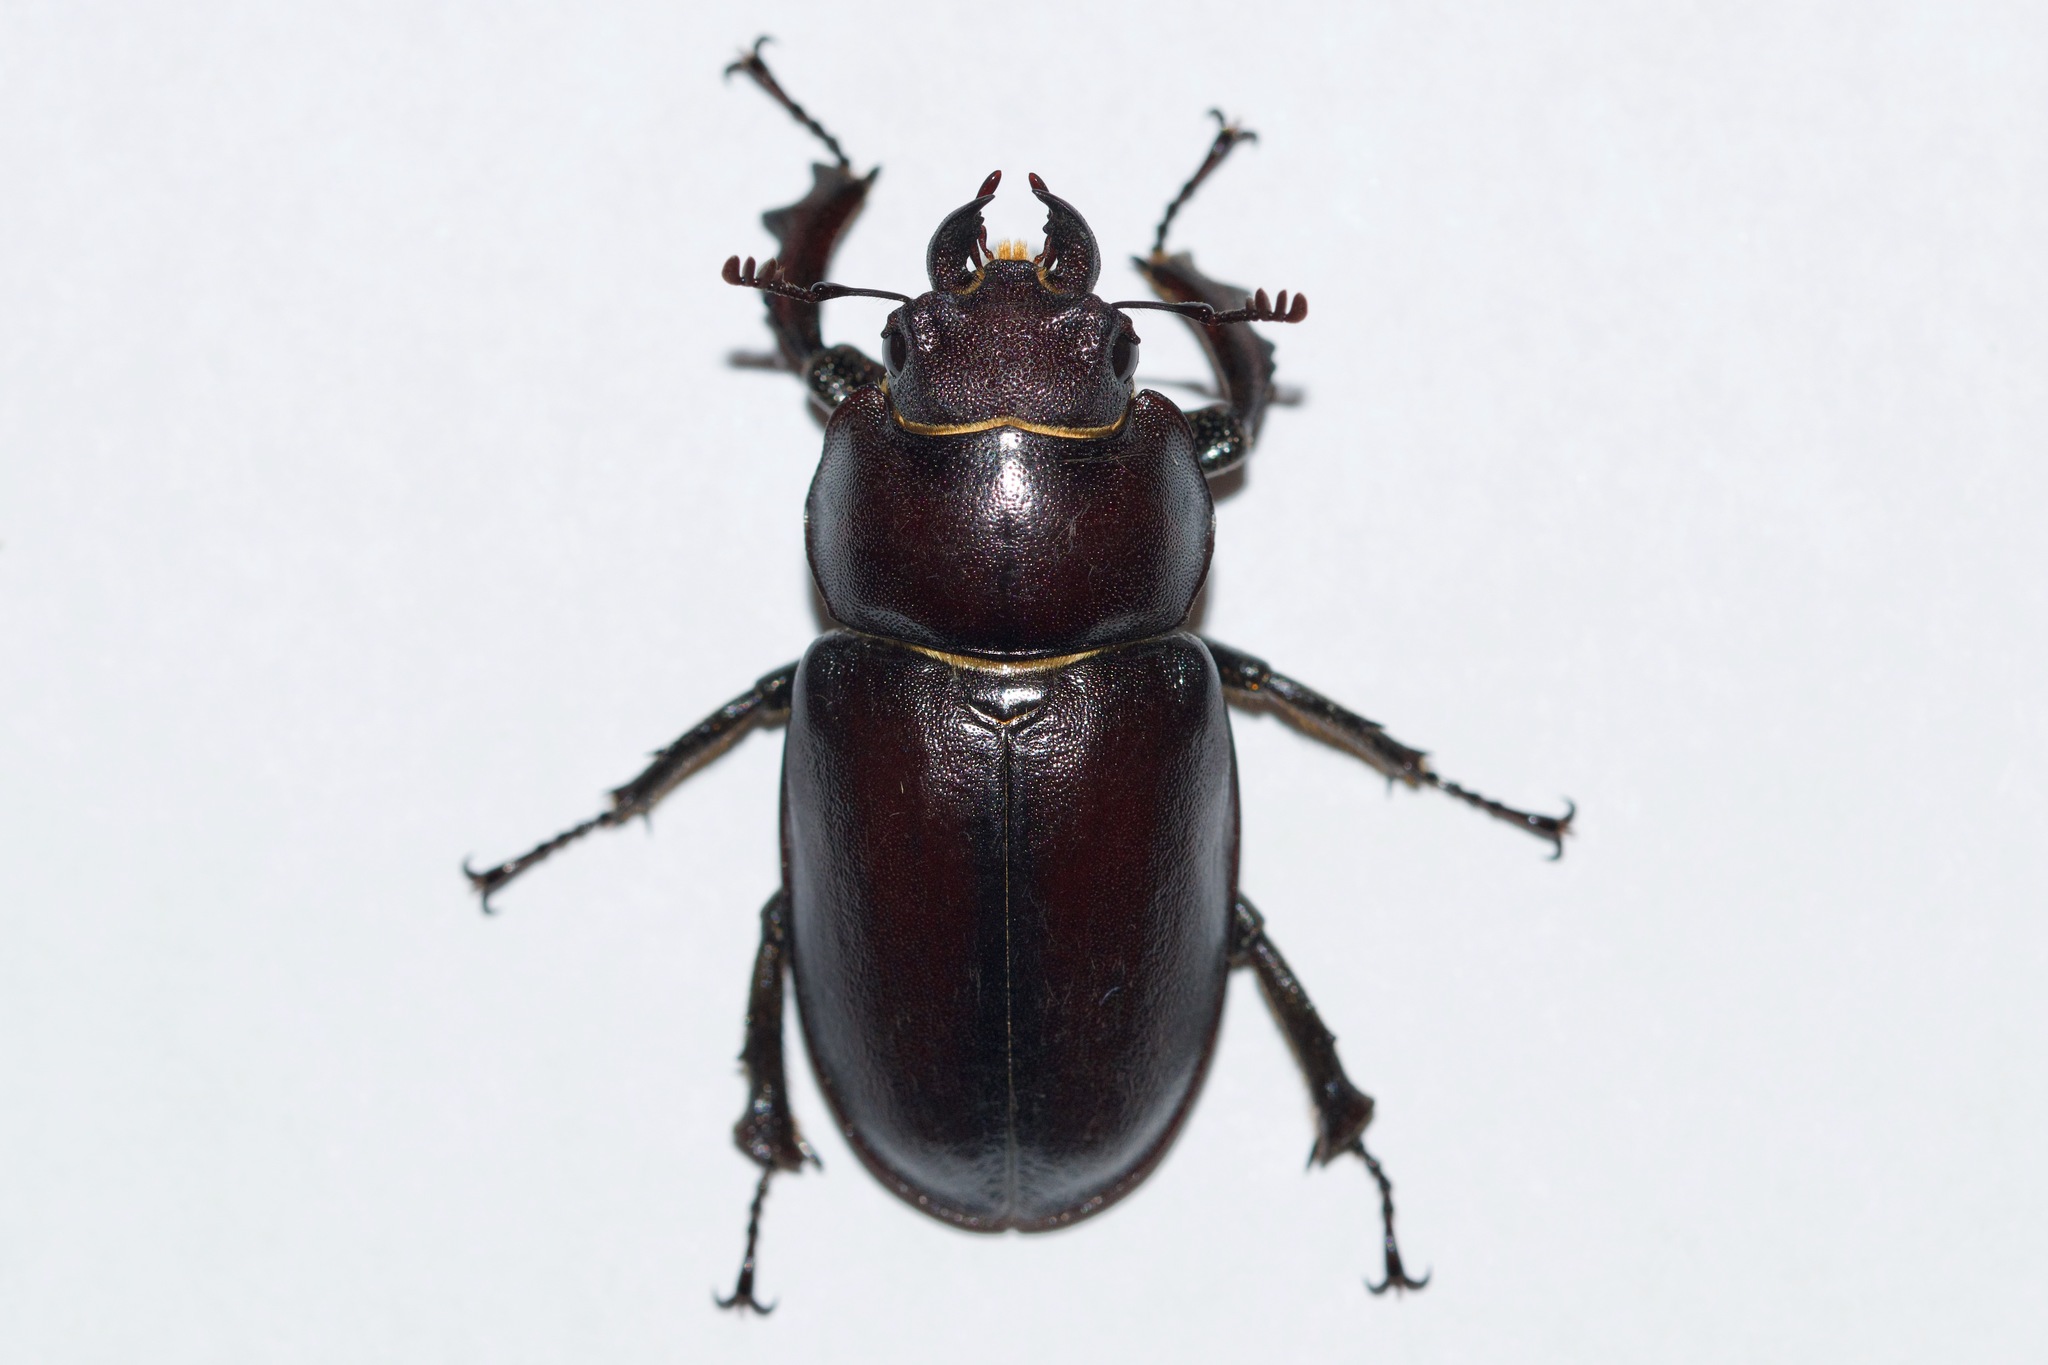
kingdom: Animalia
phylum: Arthropoda
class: Insecta
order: Coleoptera
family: Lucanidae
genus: Lucanus
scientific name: Lucanus placidus
